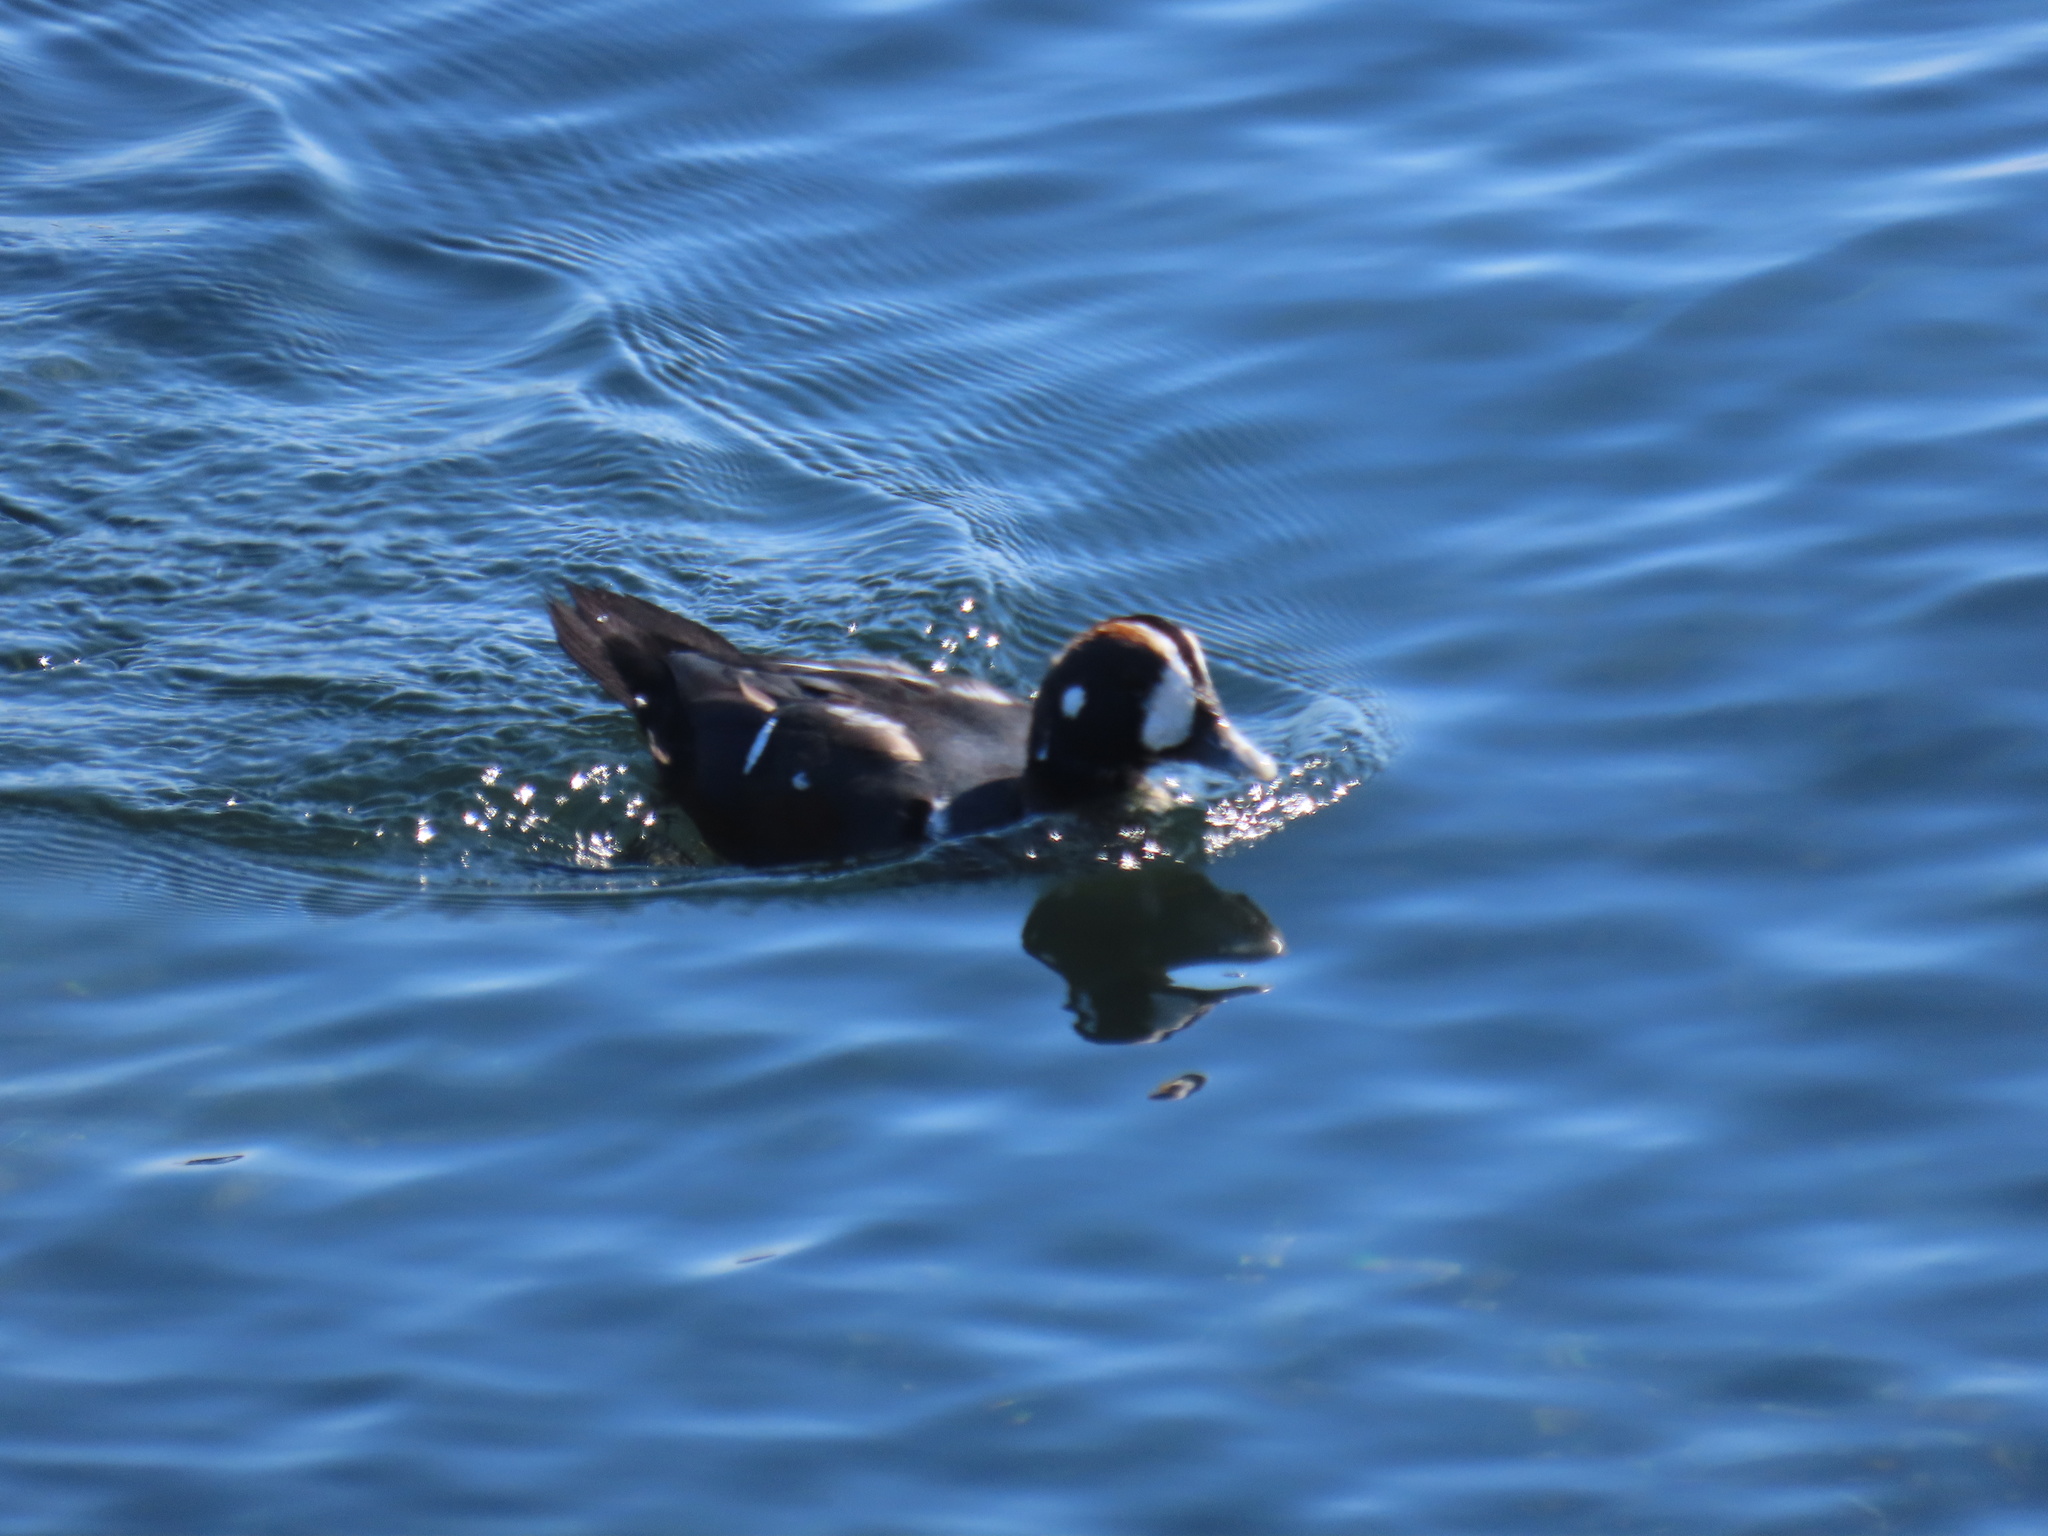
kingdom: Animalia
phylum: Chordata
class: Aves
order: Anseriformes
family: Anatidae
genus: Histrionicus
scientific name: Histrionicus histrionicus
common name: Harlequin duck
